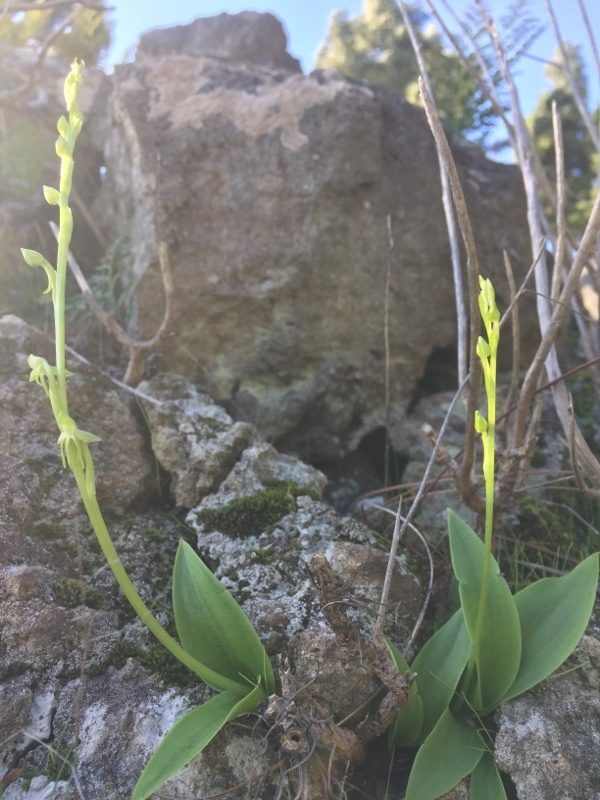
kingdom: Plantae
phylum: Tracheophyta
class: Liliopsida
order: Asparagales
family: Orchidaceae
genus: Habenaria
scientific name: Habenaria tridactylites
